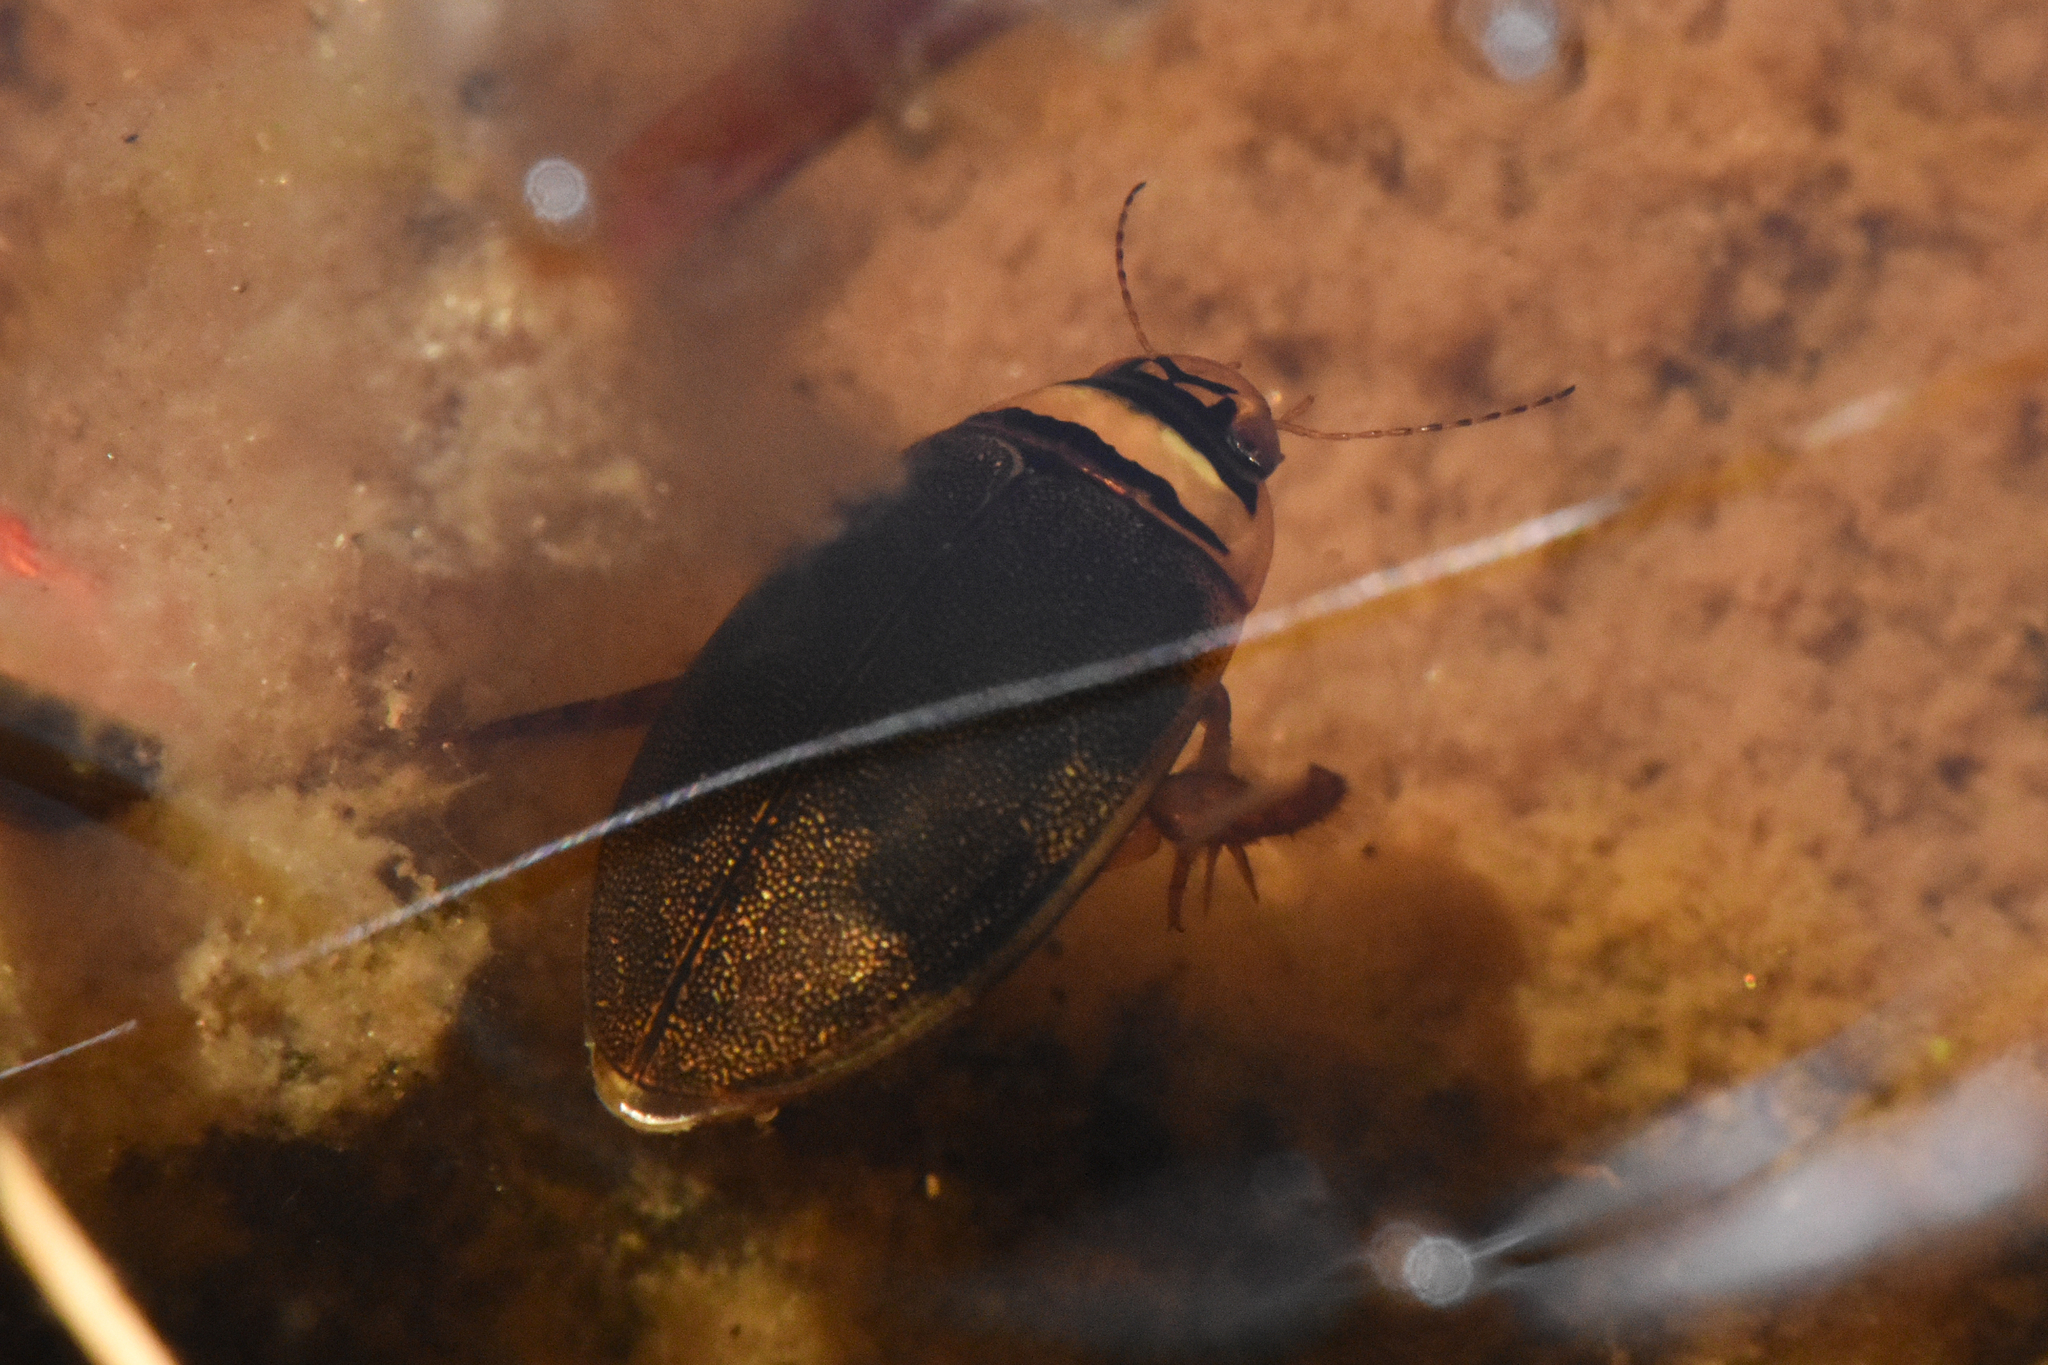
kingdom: Animalia
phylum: Arthropoda
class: Insecta
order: Coleoptera
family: Dytiscidae
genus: Graphoderus
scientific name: Graphoderus perplexus
